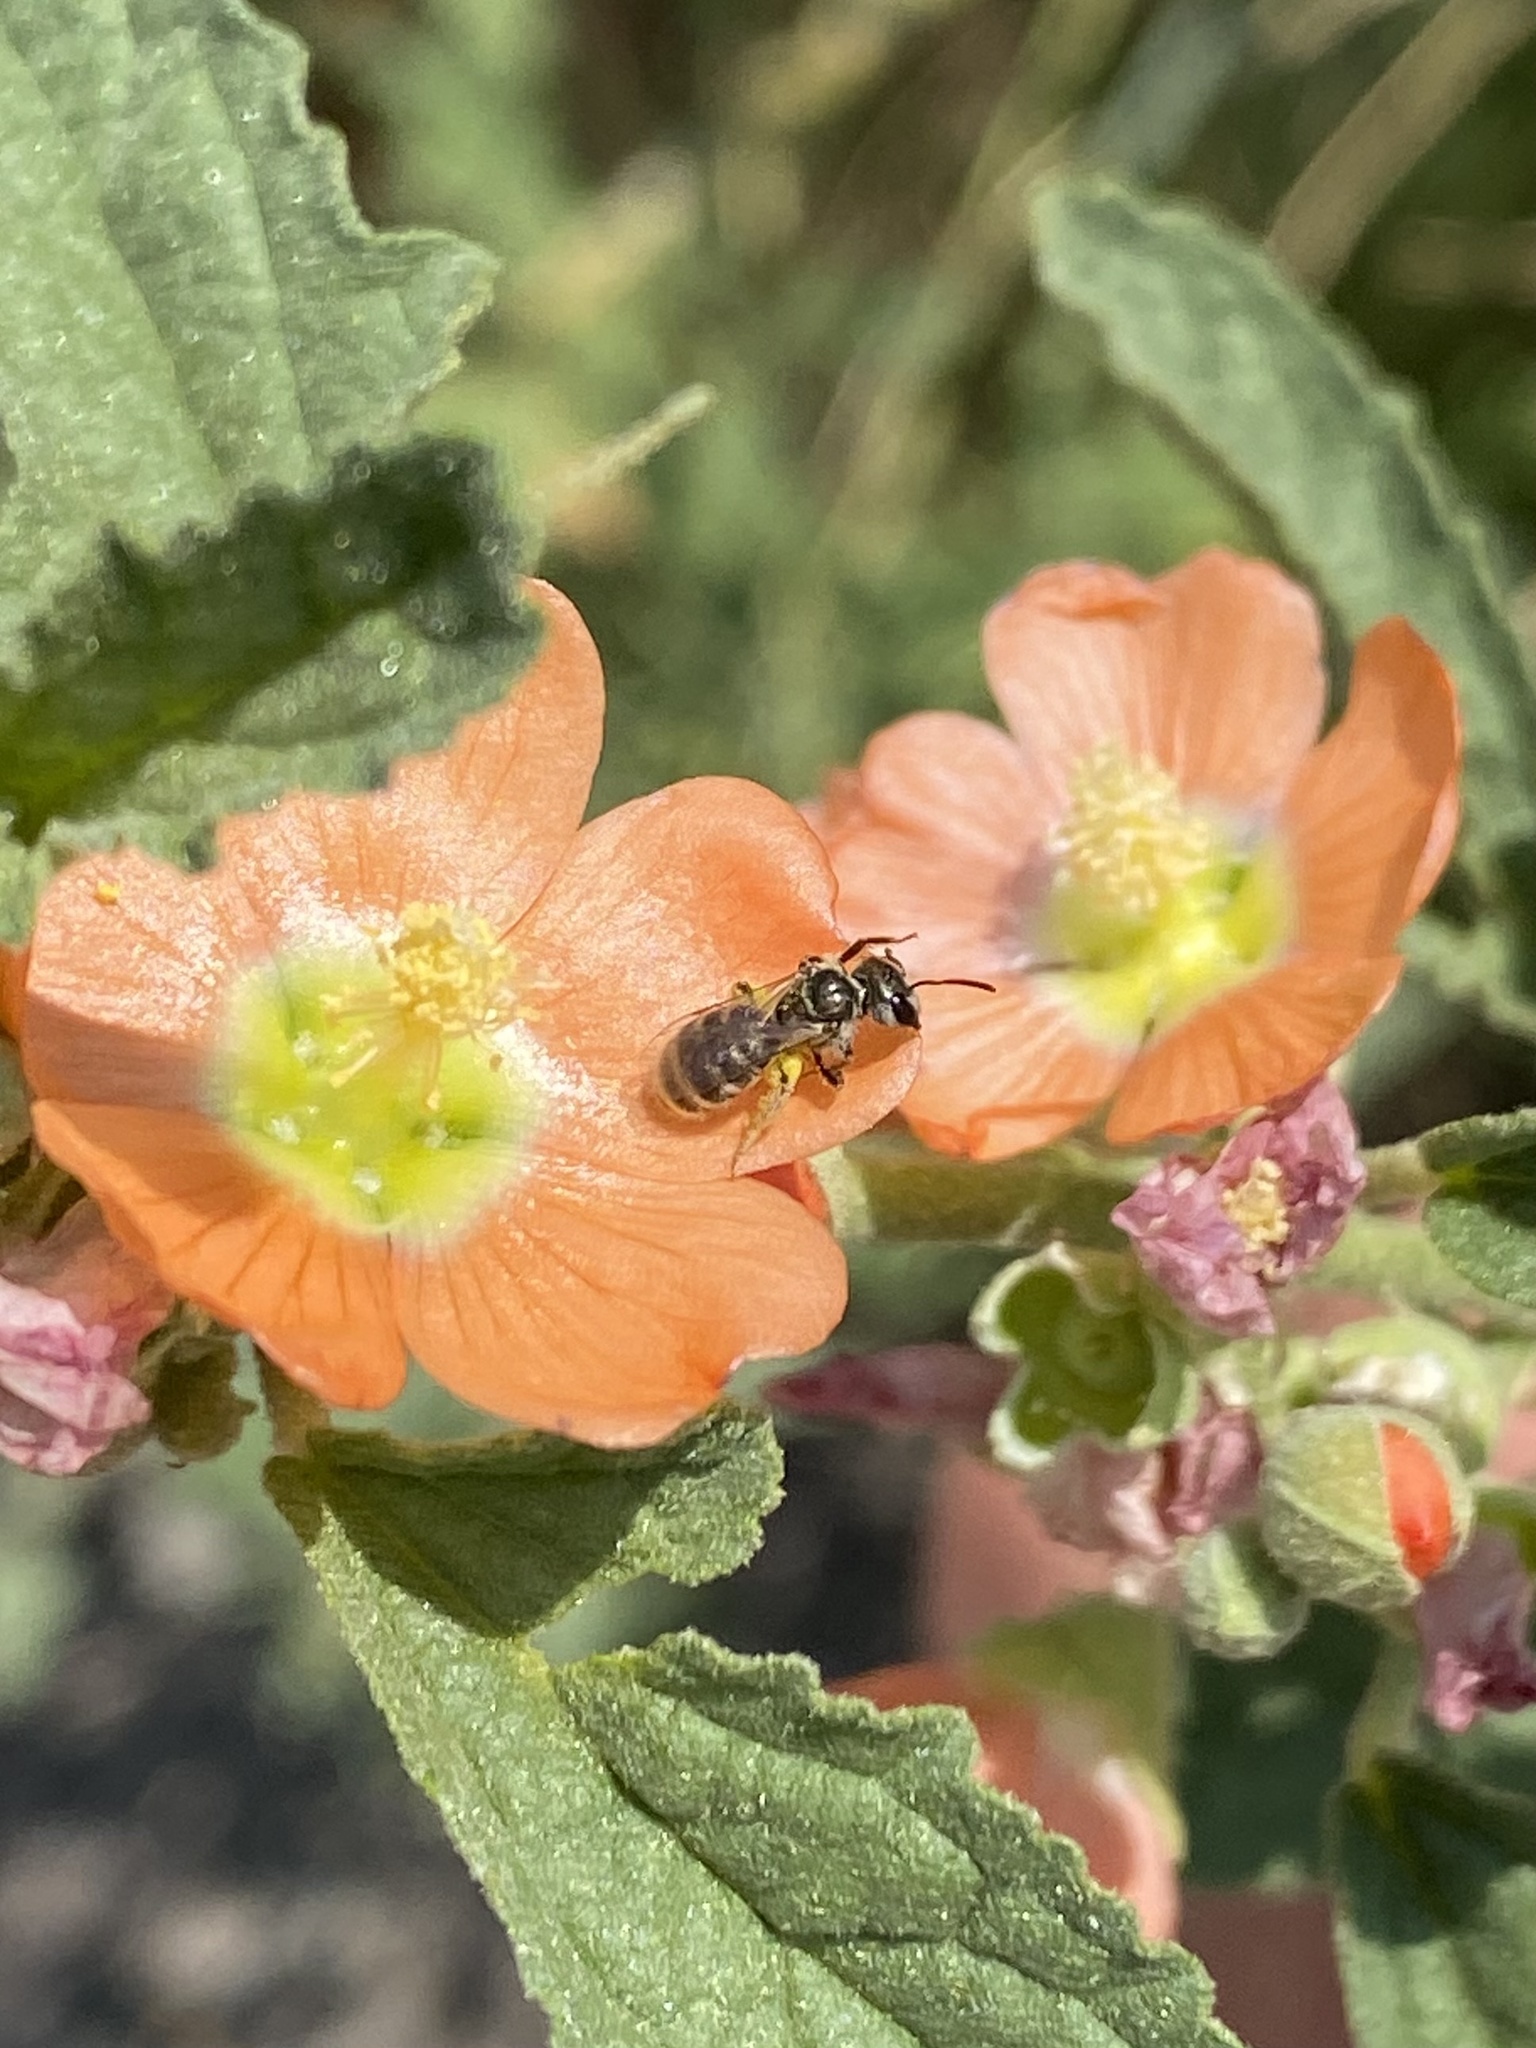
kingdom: Animalia
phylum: Arthropoda
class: Insecta
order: Hymenoptera
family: Halictidae
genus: Halictus
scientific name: Halictus tripartitus
